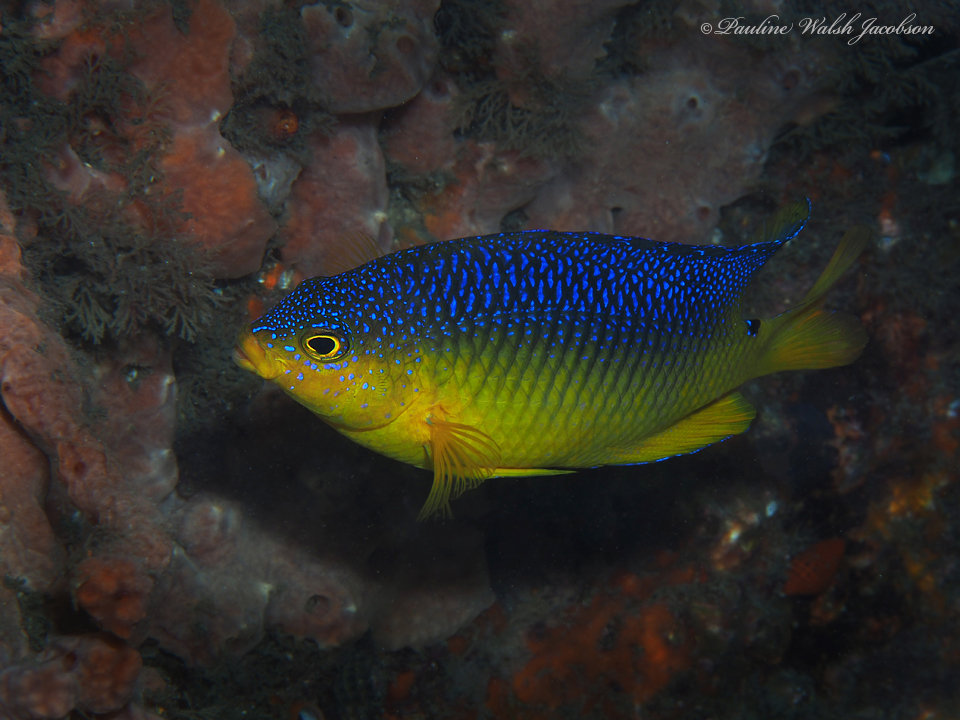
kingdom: Animalia
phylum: Chordata
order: Perciformes
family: Pomacentridae
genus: Stegastes
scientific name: Stegastes xanthurus
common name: Cocoa damselfish
